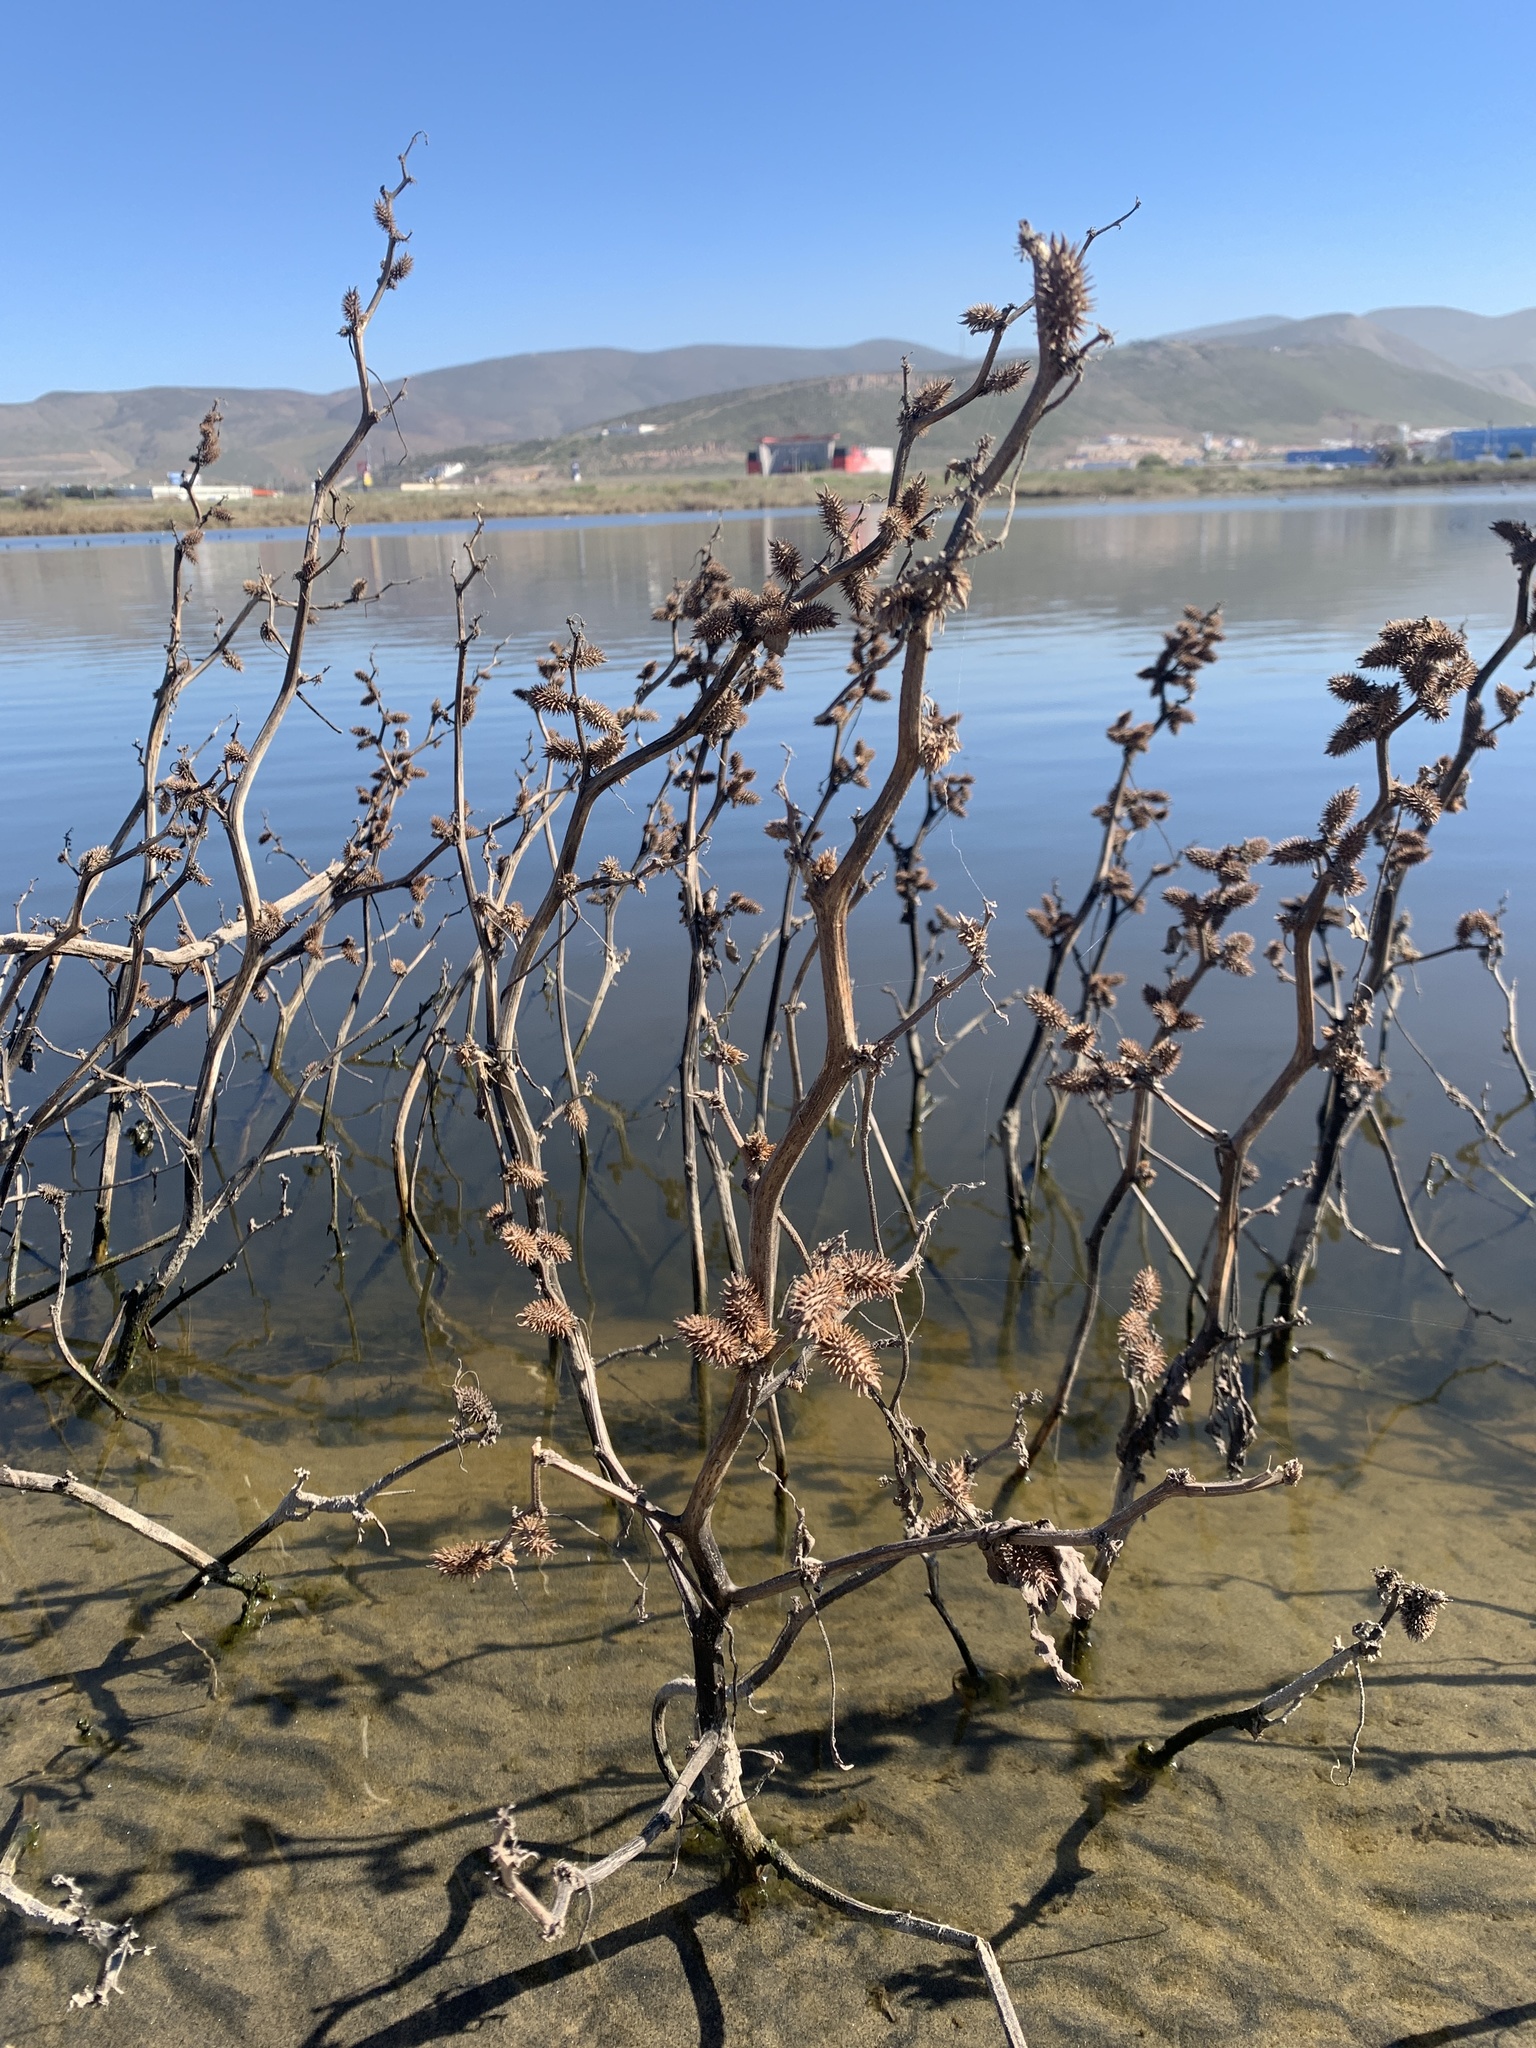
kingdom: Plantae
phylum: Tracheophyta
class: Magnoliopsida
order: Asterales
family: Asteraceae
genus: Xanthium
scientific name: Xanthium strumarium
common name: Rough cocklebur
